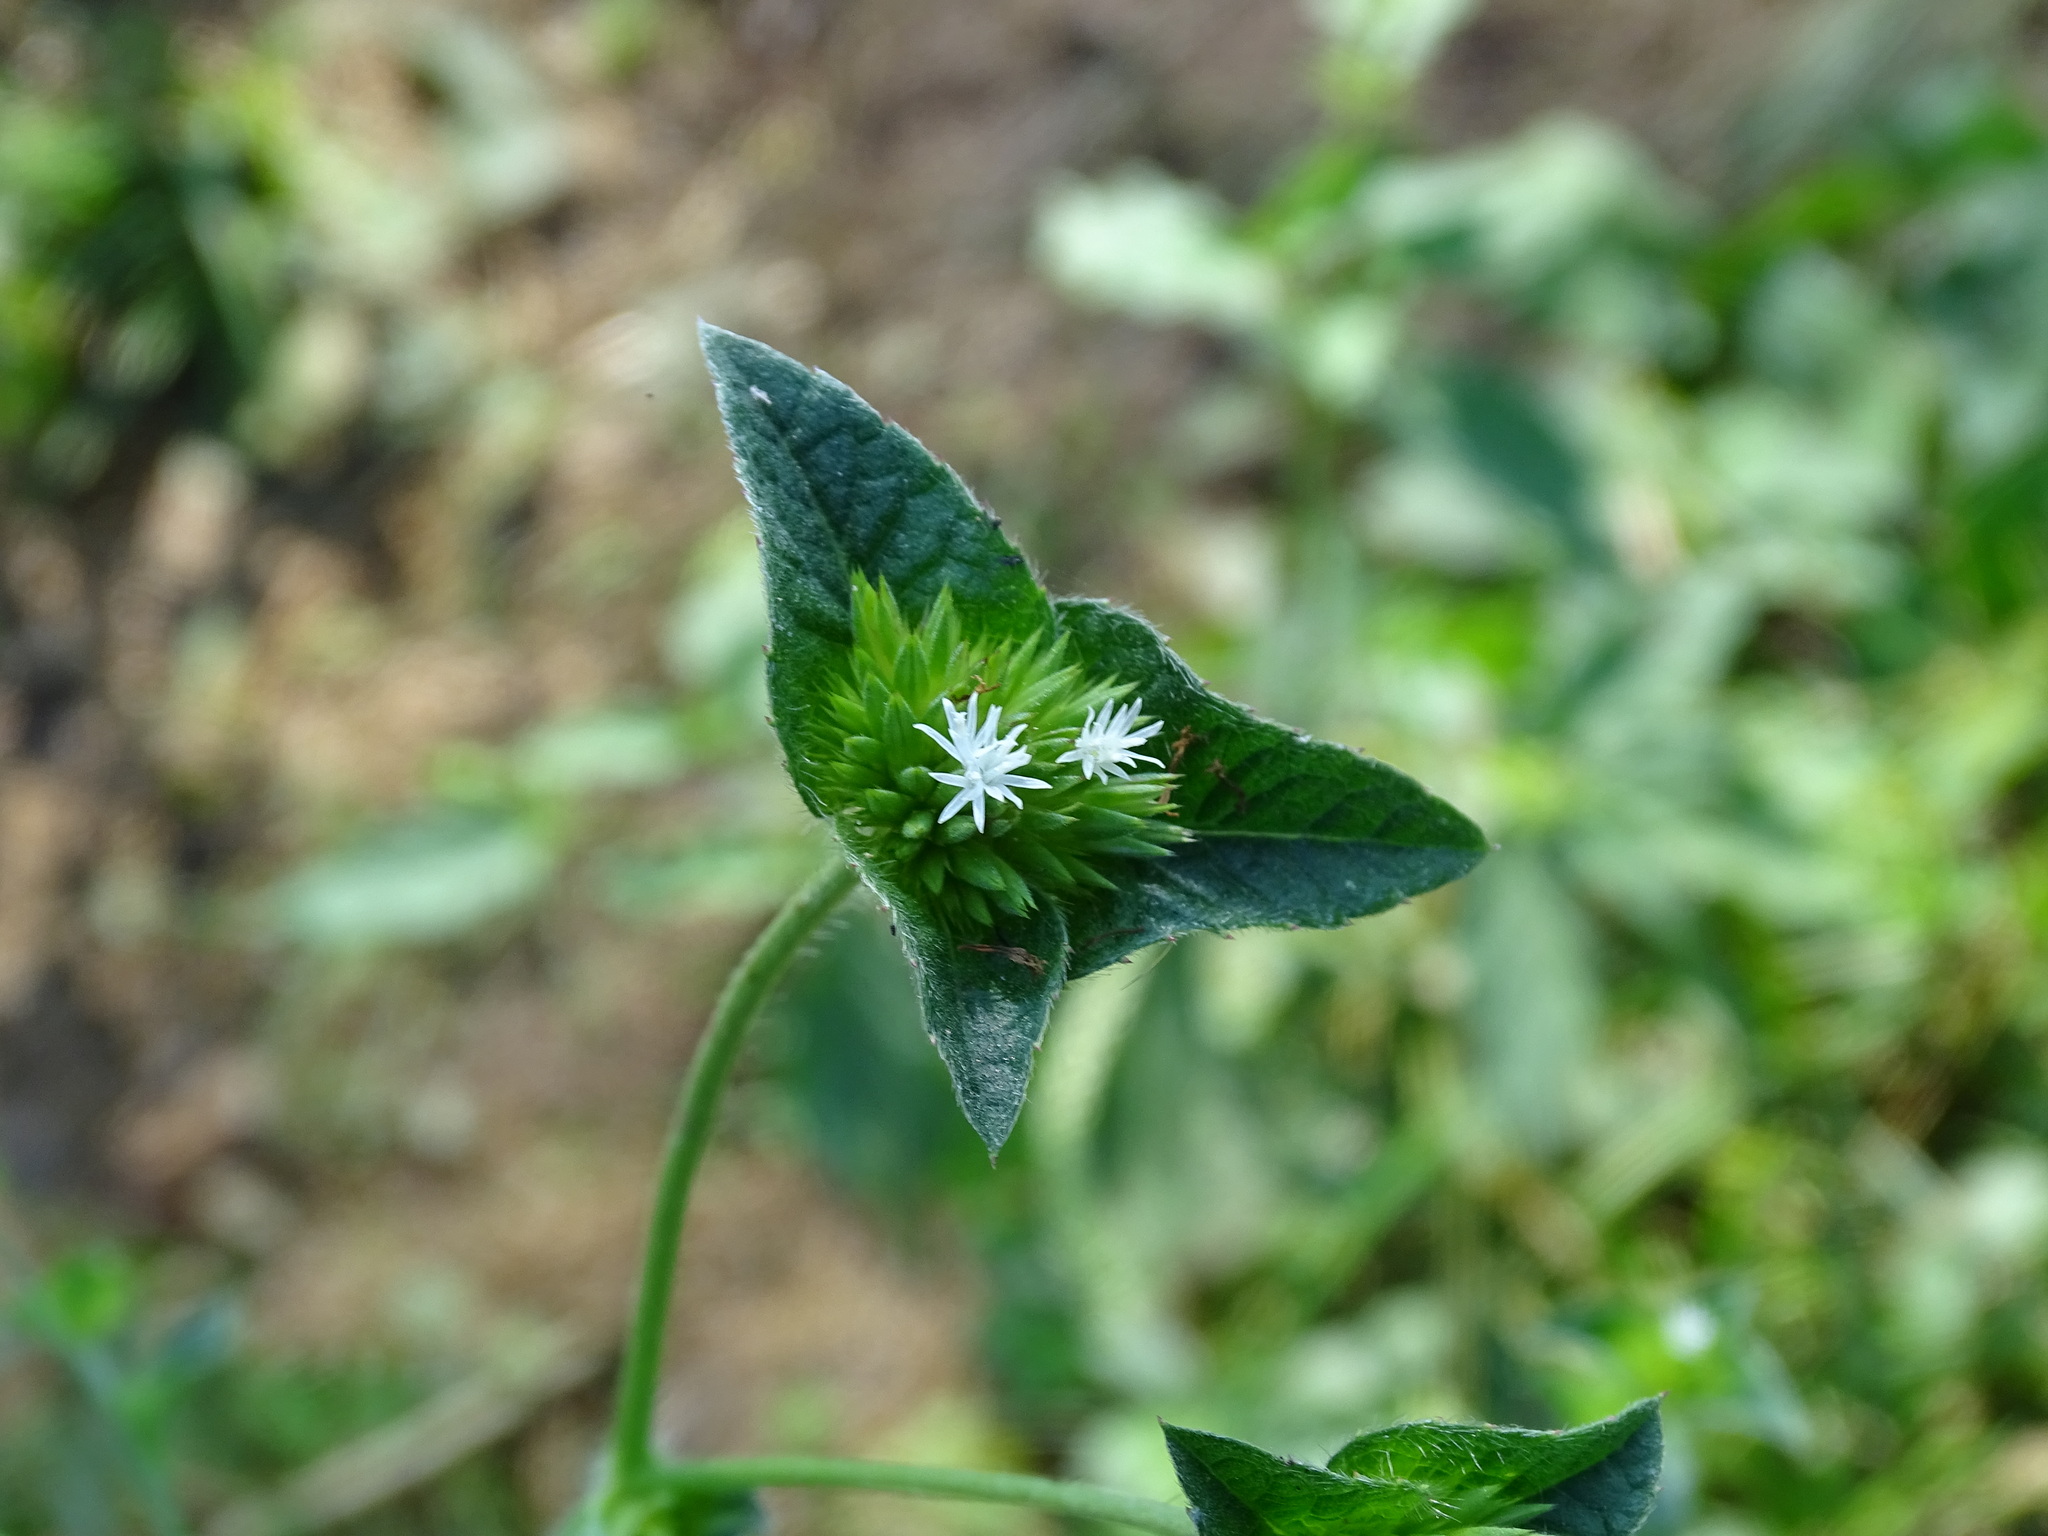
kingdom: Plantae
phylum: Tracheophyta
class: Magnoliopsida
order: Asterales
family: Asteraceae
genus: Elephantopus
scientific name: Elephantopus mollis
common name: Soft elephantsfoot
